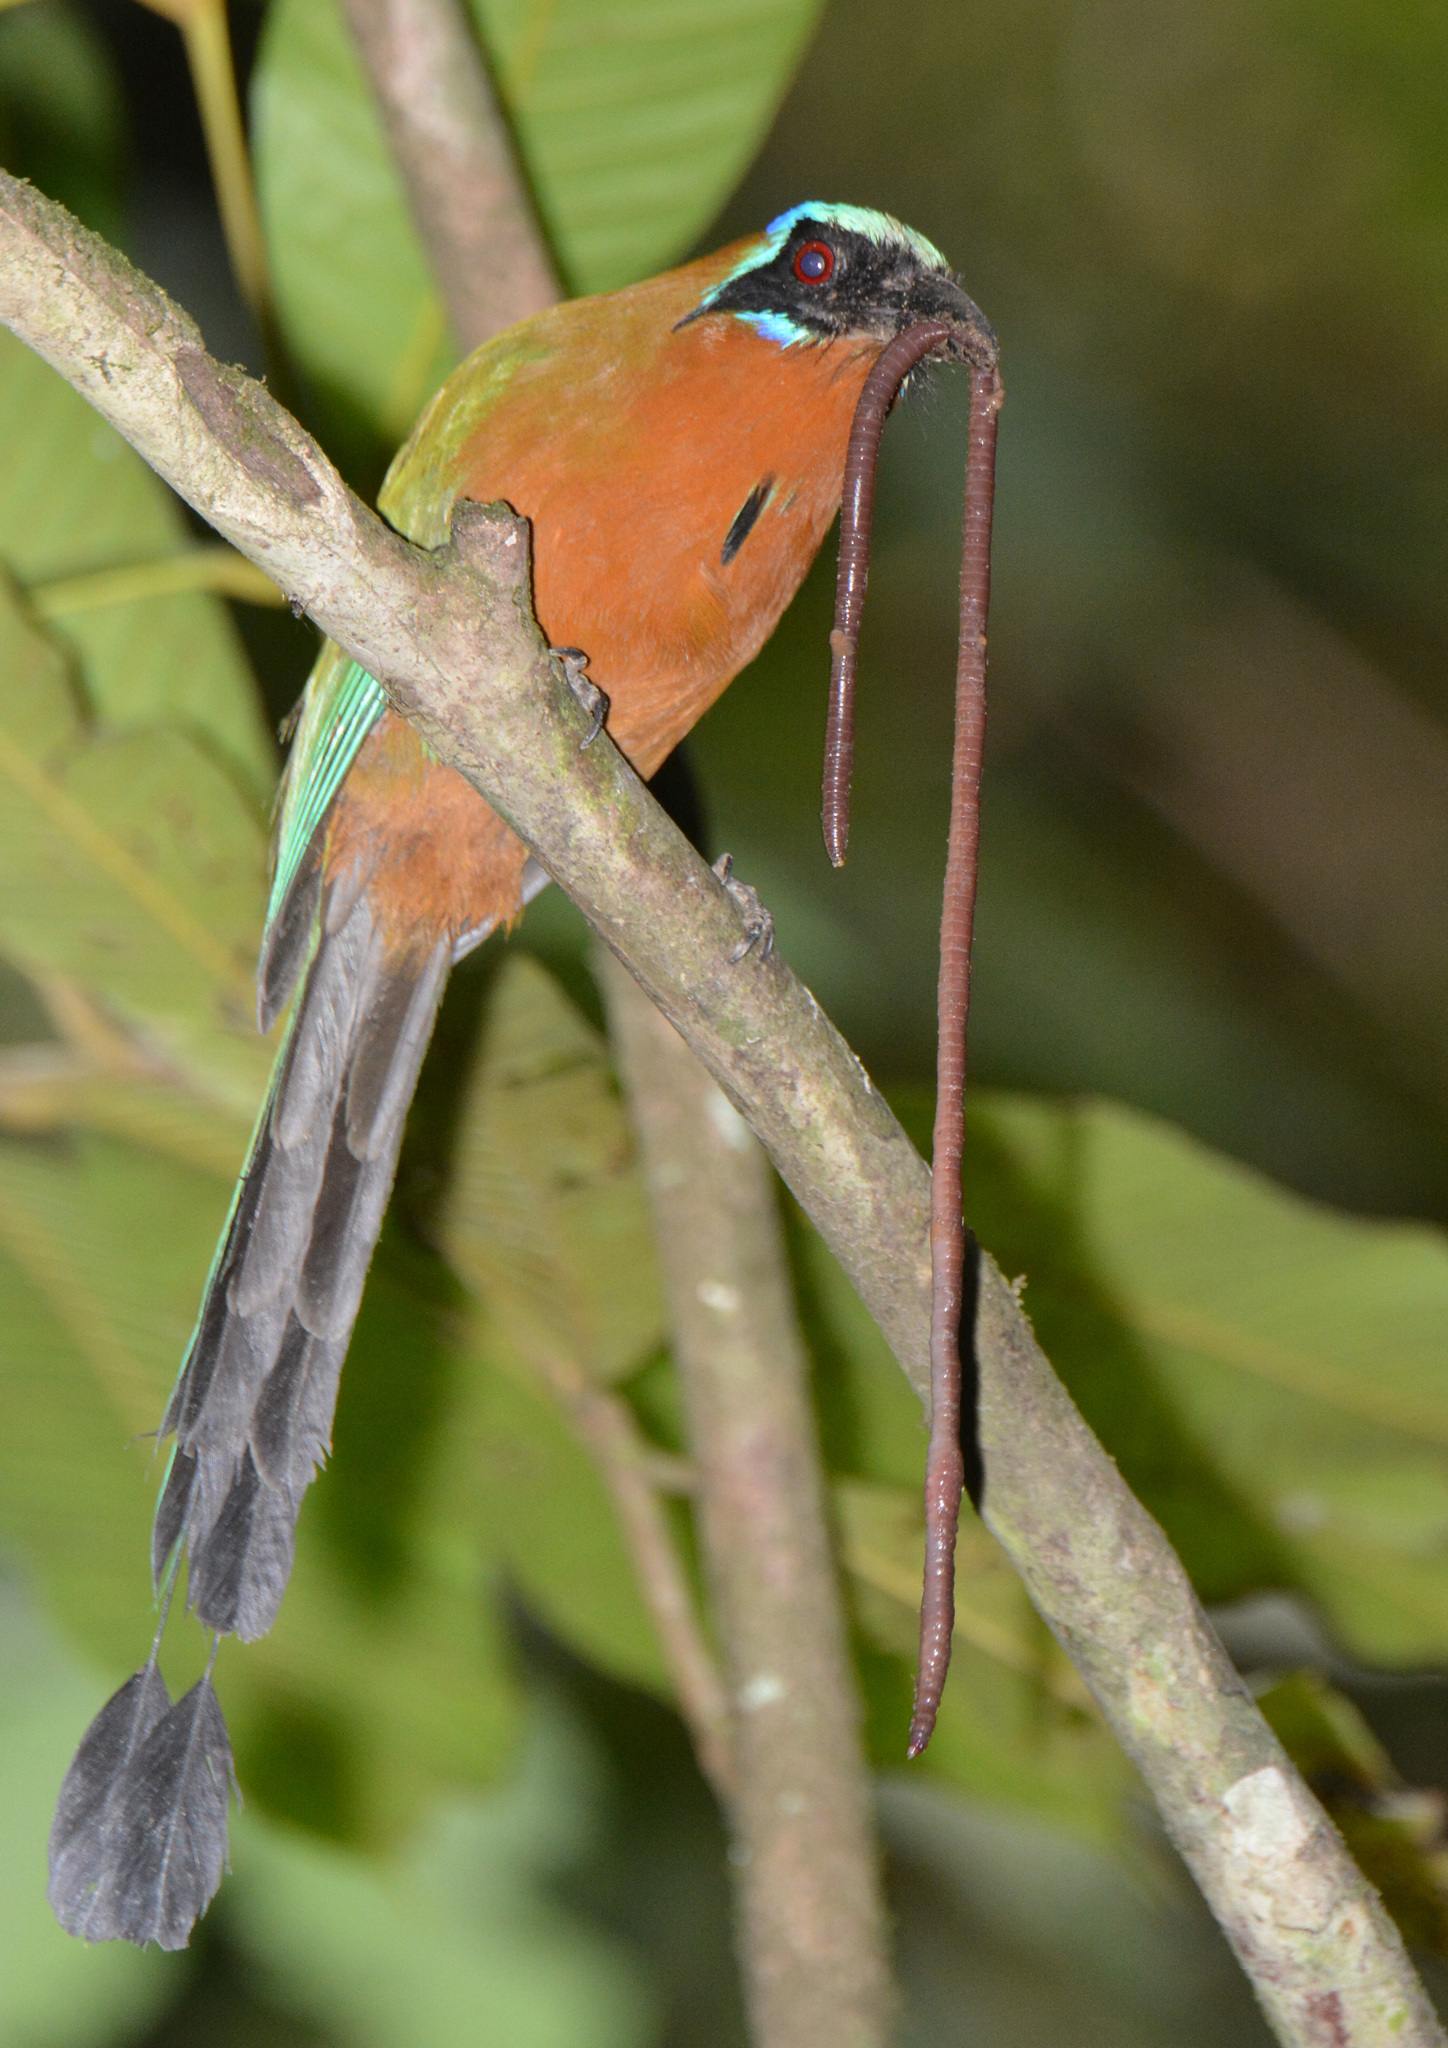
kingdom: Animalia
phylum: Chordata
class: Aves
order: Coraciiformes
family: Momotidae
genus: Momotus
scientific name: Momotus bahamensis
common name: Trinidad motmot
